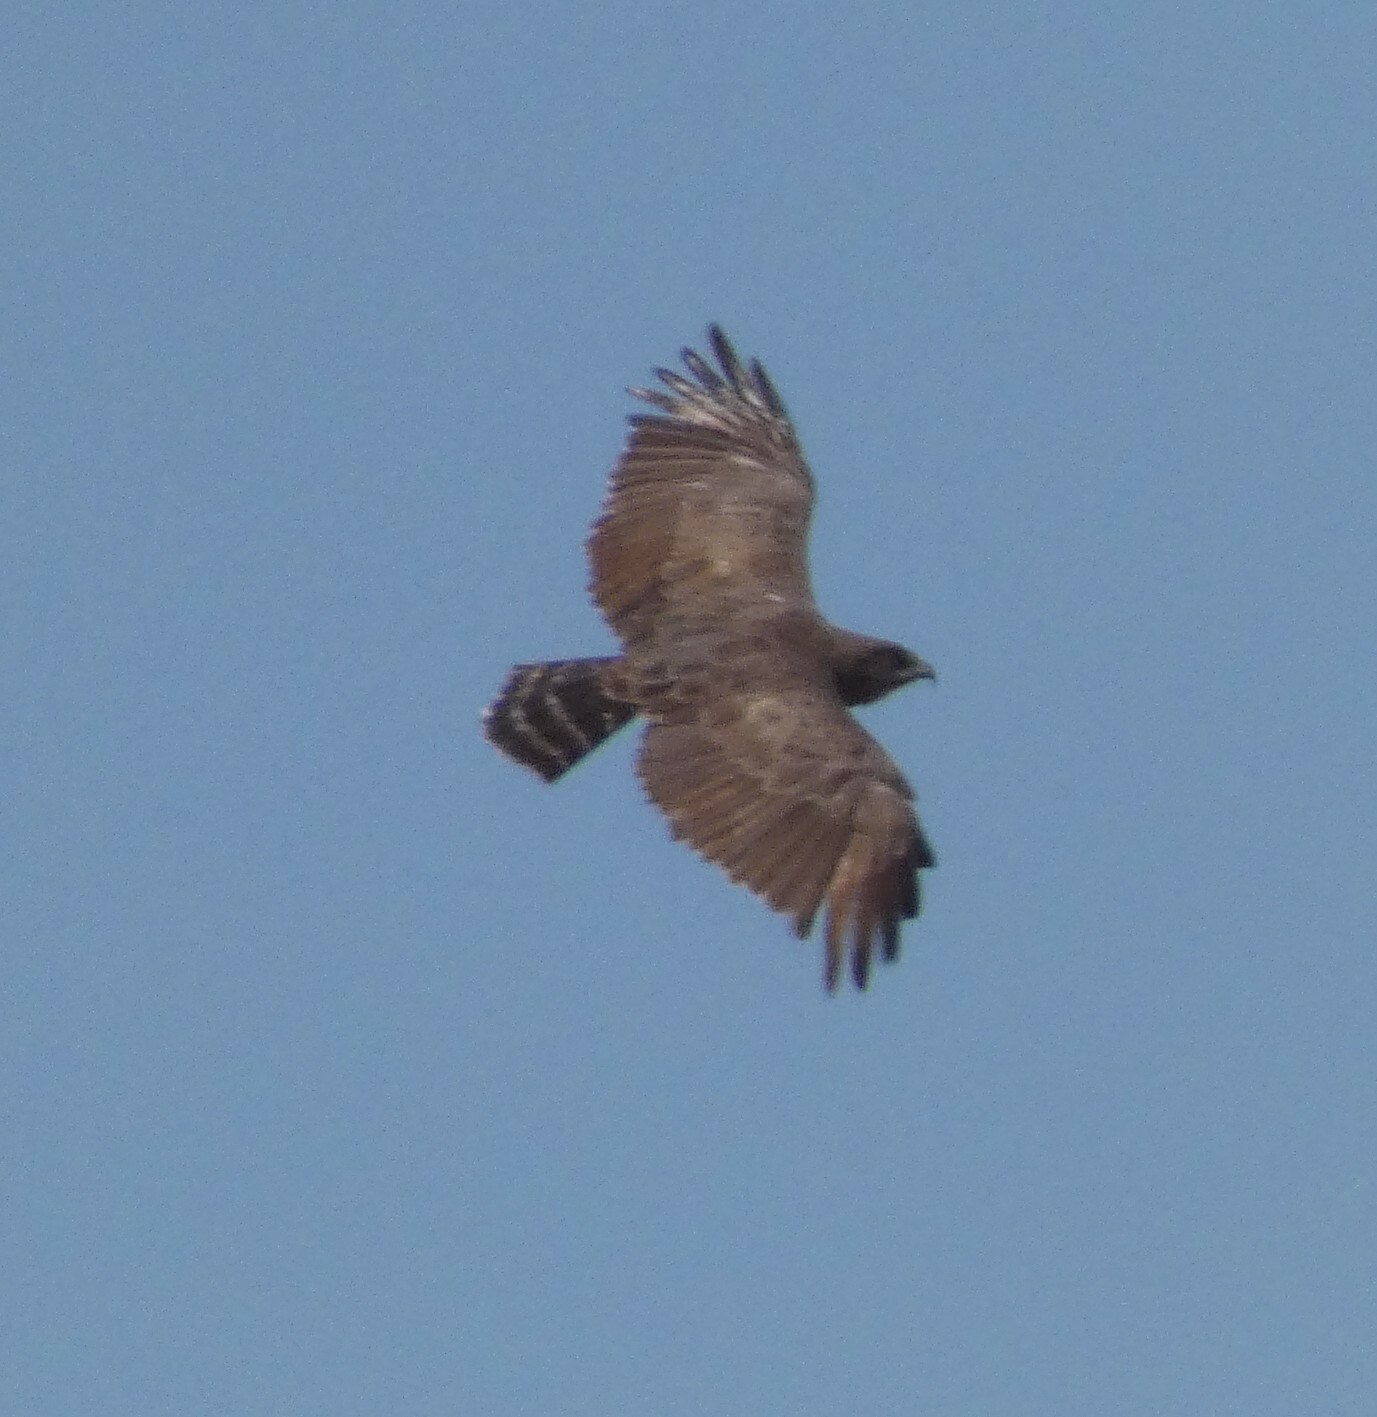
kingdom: Animalia
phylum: Chordata
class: Aves
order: Accipitriformes
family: Accipitridae
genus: Circaetus
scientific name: Circaetus cinereus
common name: Brown snake eagle
